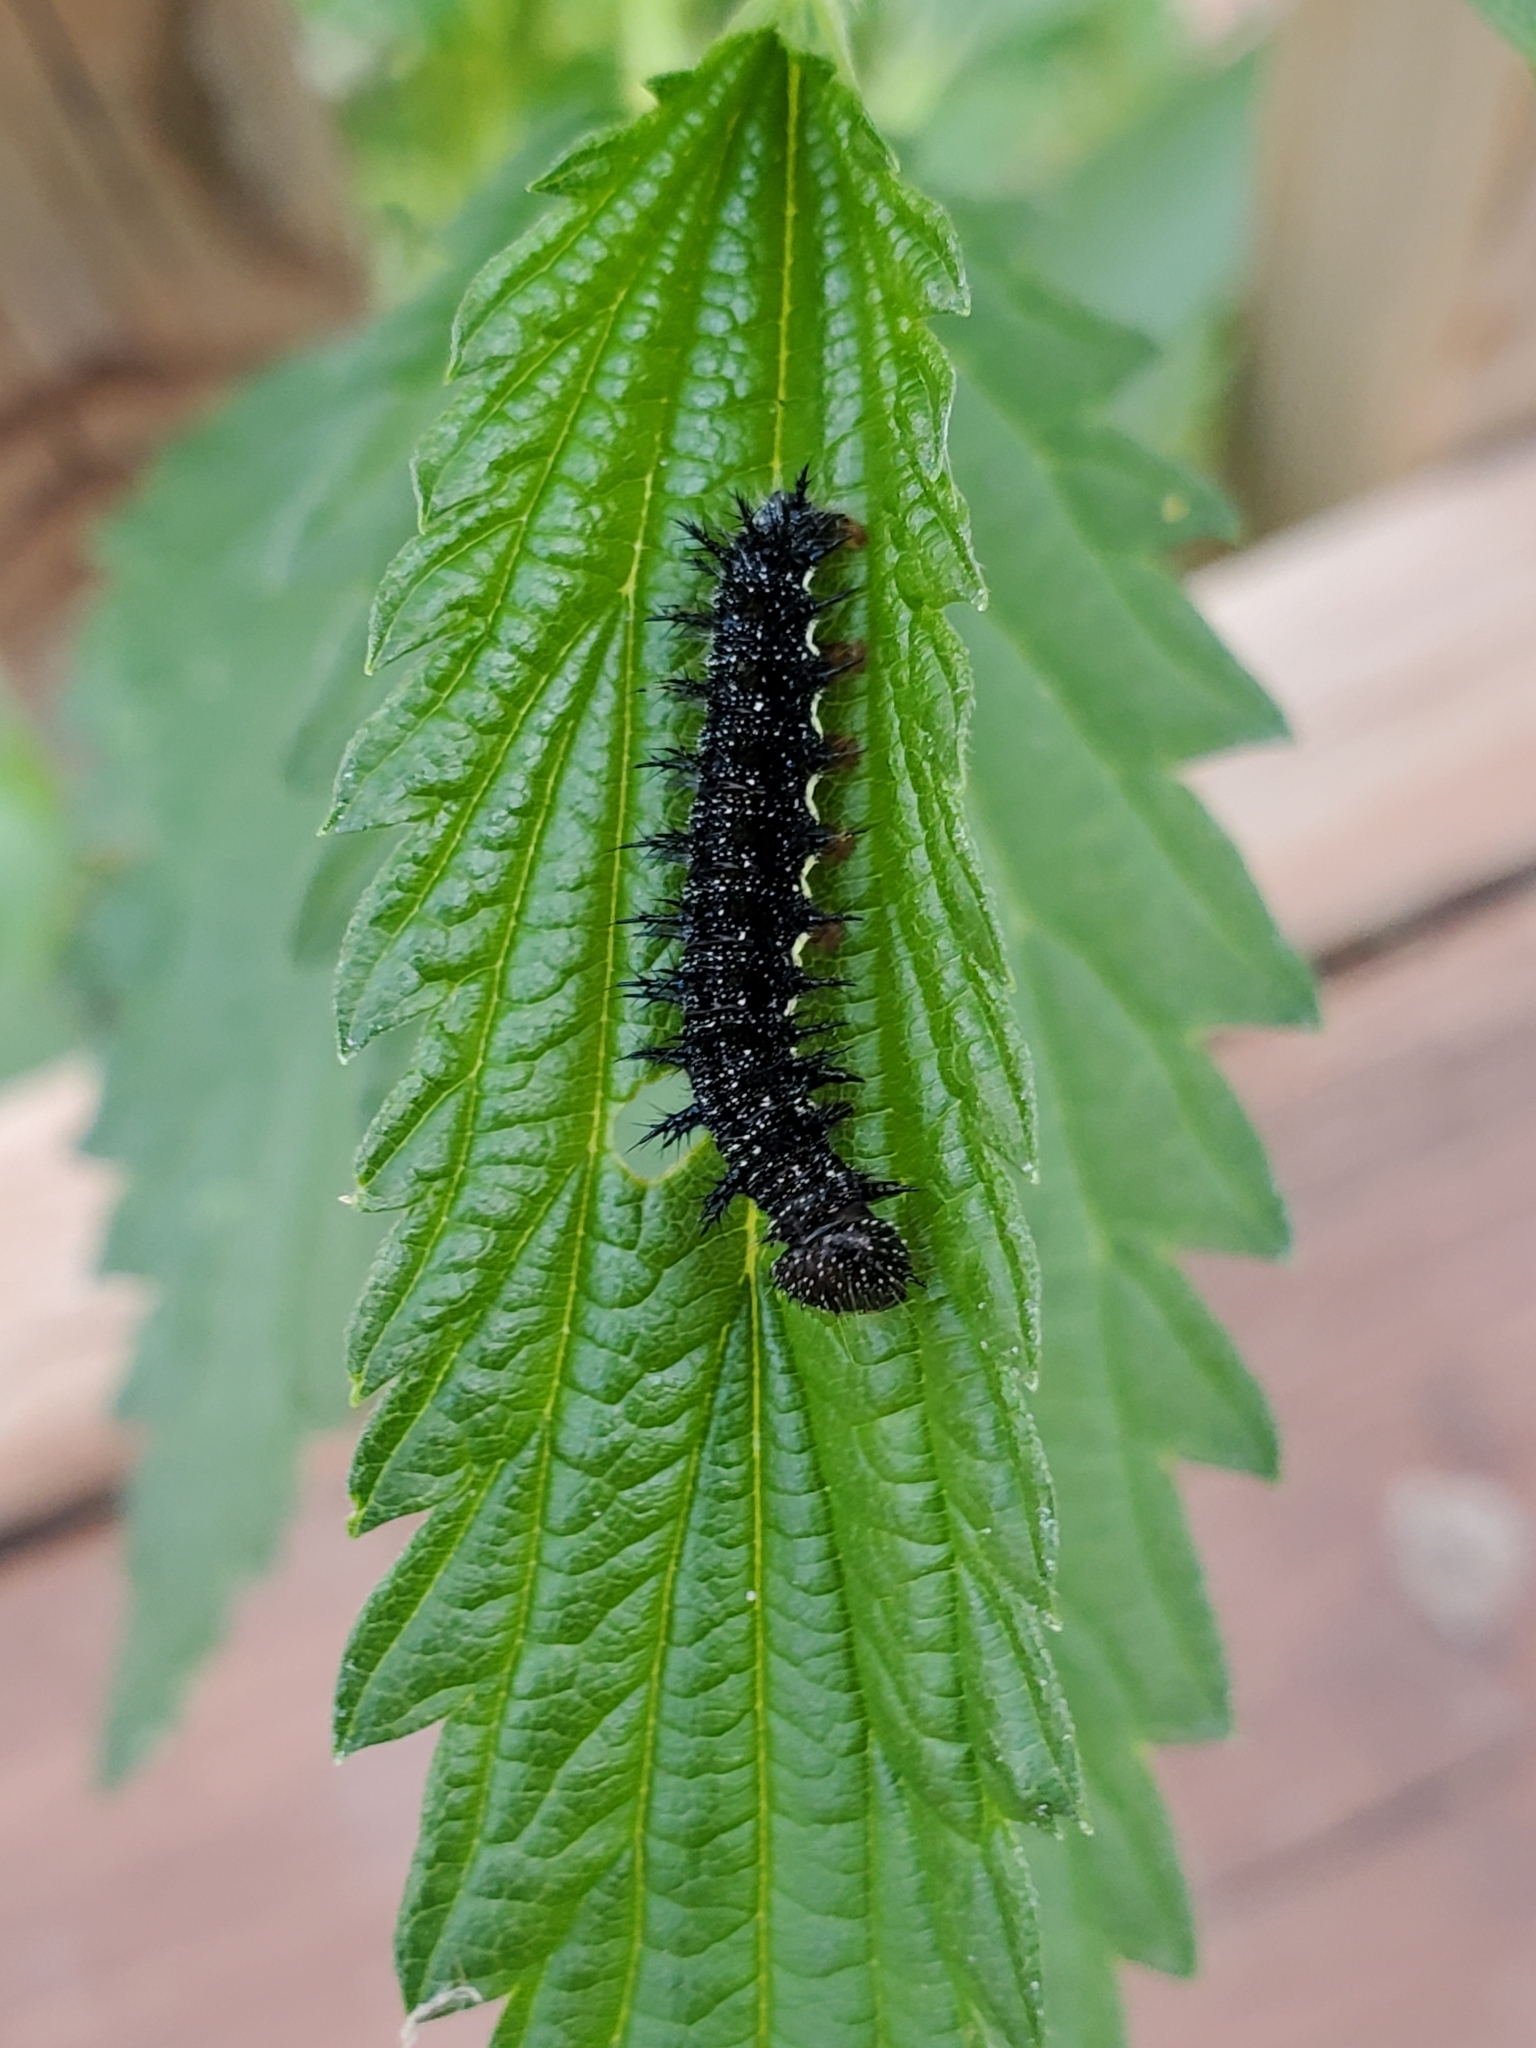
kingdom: Animalia
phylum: Arthropoda
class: Insecta
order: Lepidoptera
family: Nymphalidae
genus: Vanessa
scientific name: Vanessa atalanta
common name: Red admiral
